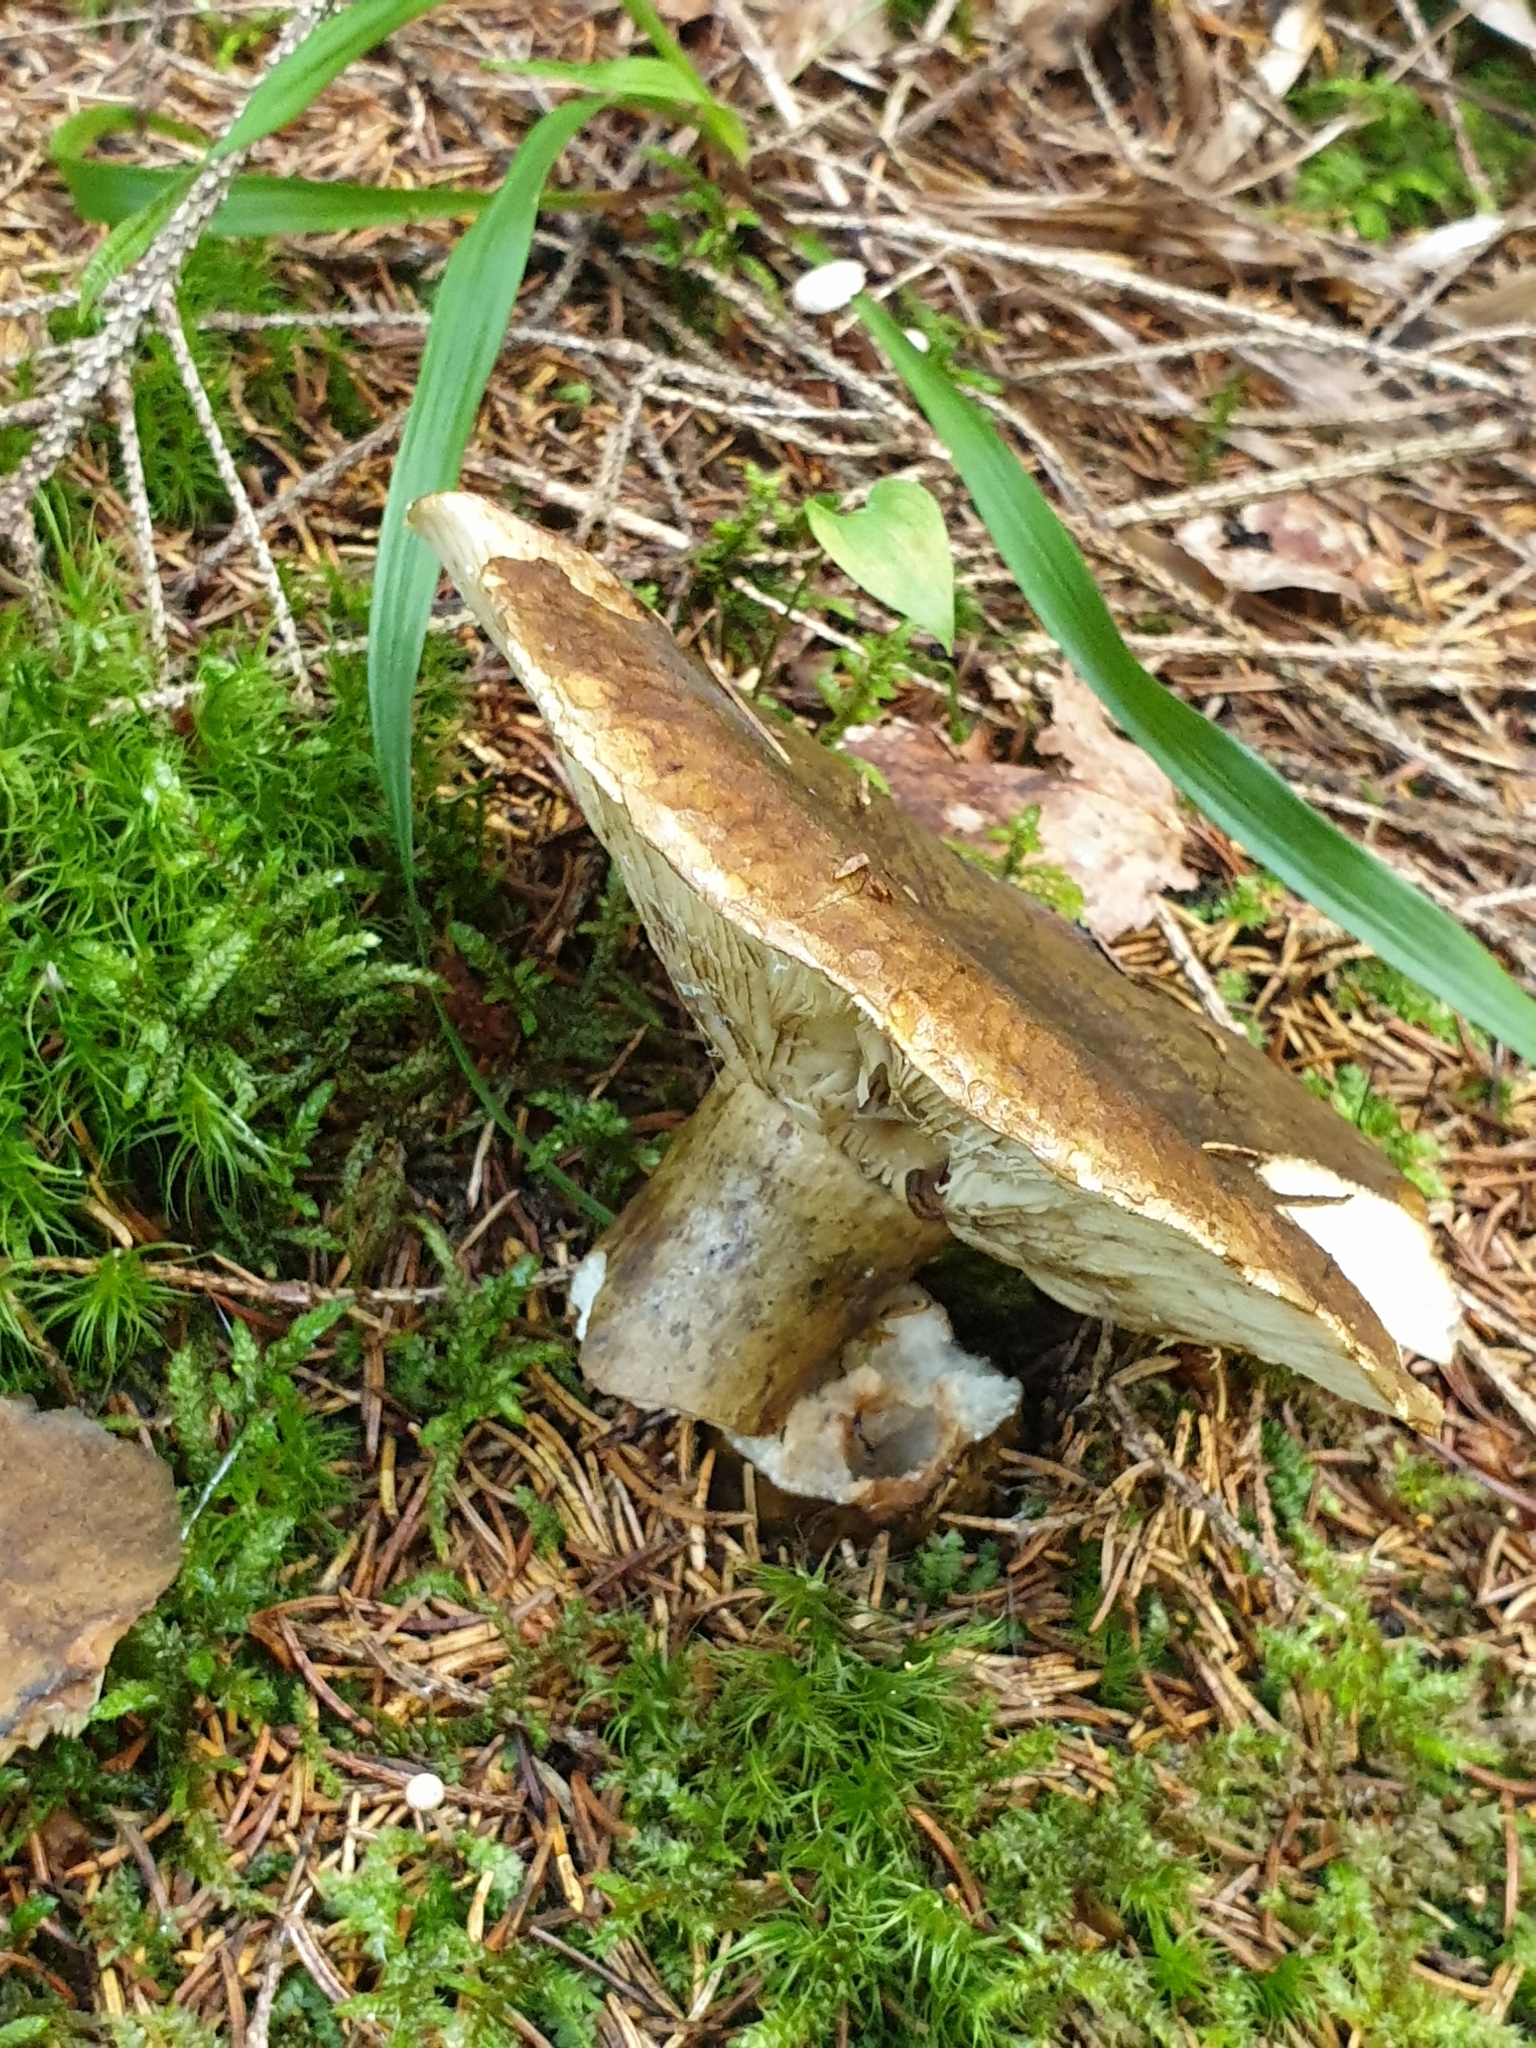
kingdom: Fungi
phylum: Basidiomycota
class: Agaricomycetes
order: Russulales
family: Russulaceae
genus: Lactarius
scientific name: Lactarius turpis
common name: Ugly milk-cap
